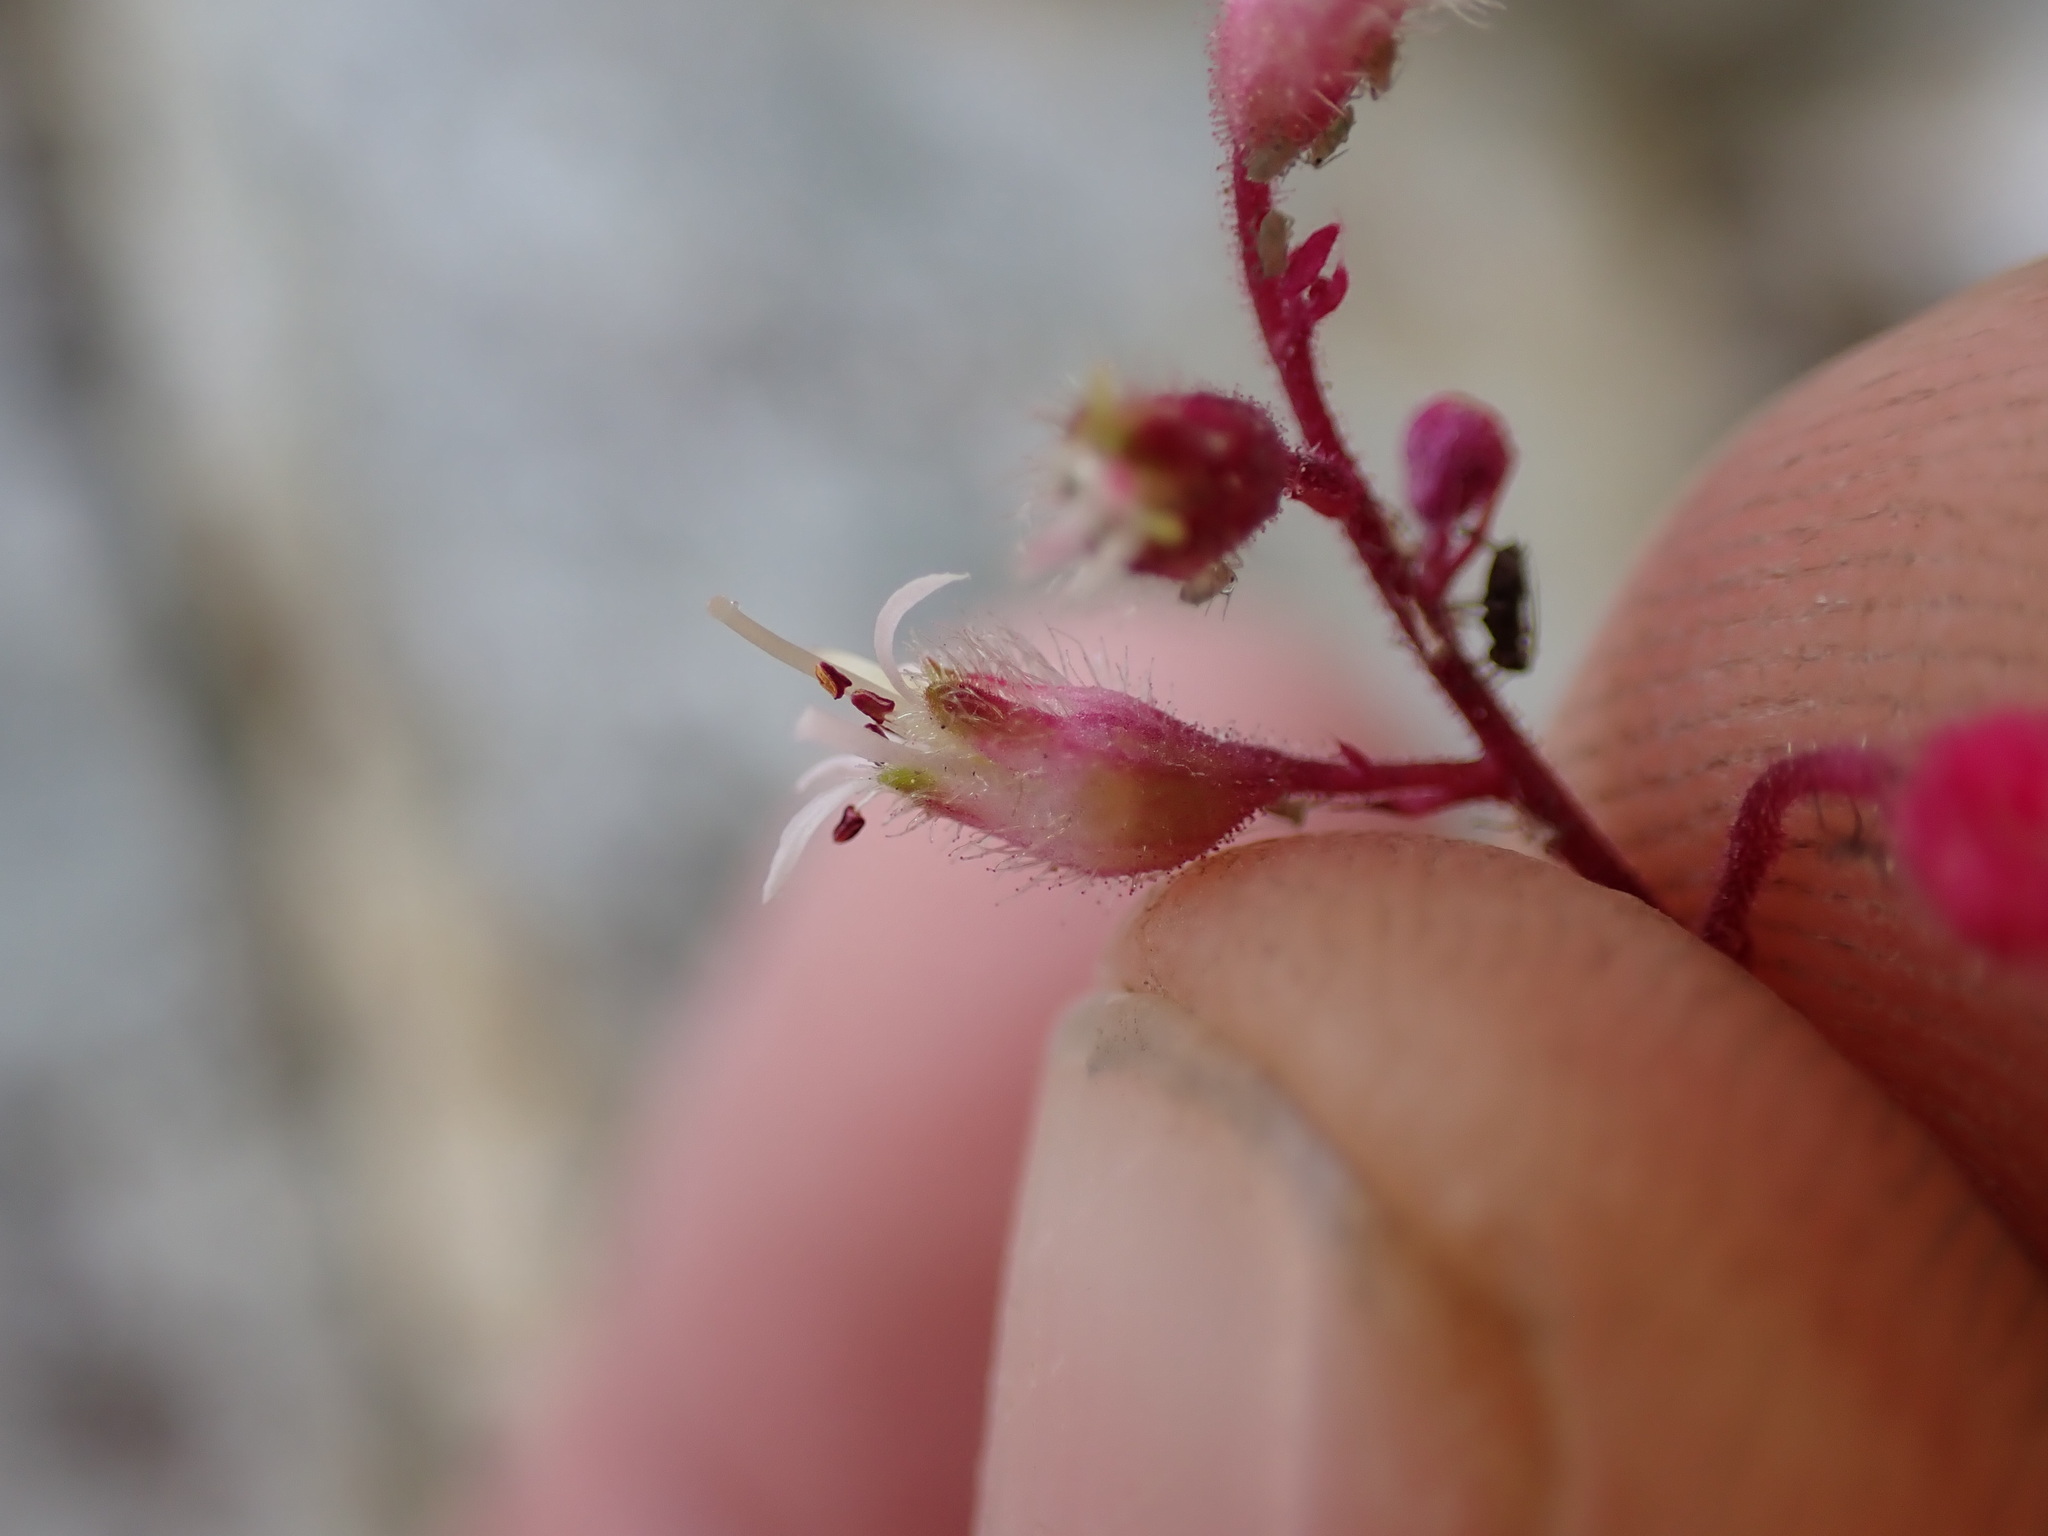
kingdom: Plantae
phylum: Tracheophyta
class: Magnoliopsida
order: Saxifragales
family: Saxifragaceae
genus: Heuchera
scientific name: Heuchera rubescens
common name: Jack-o'the-rocks
